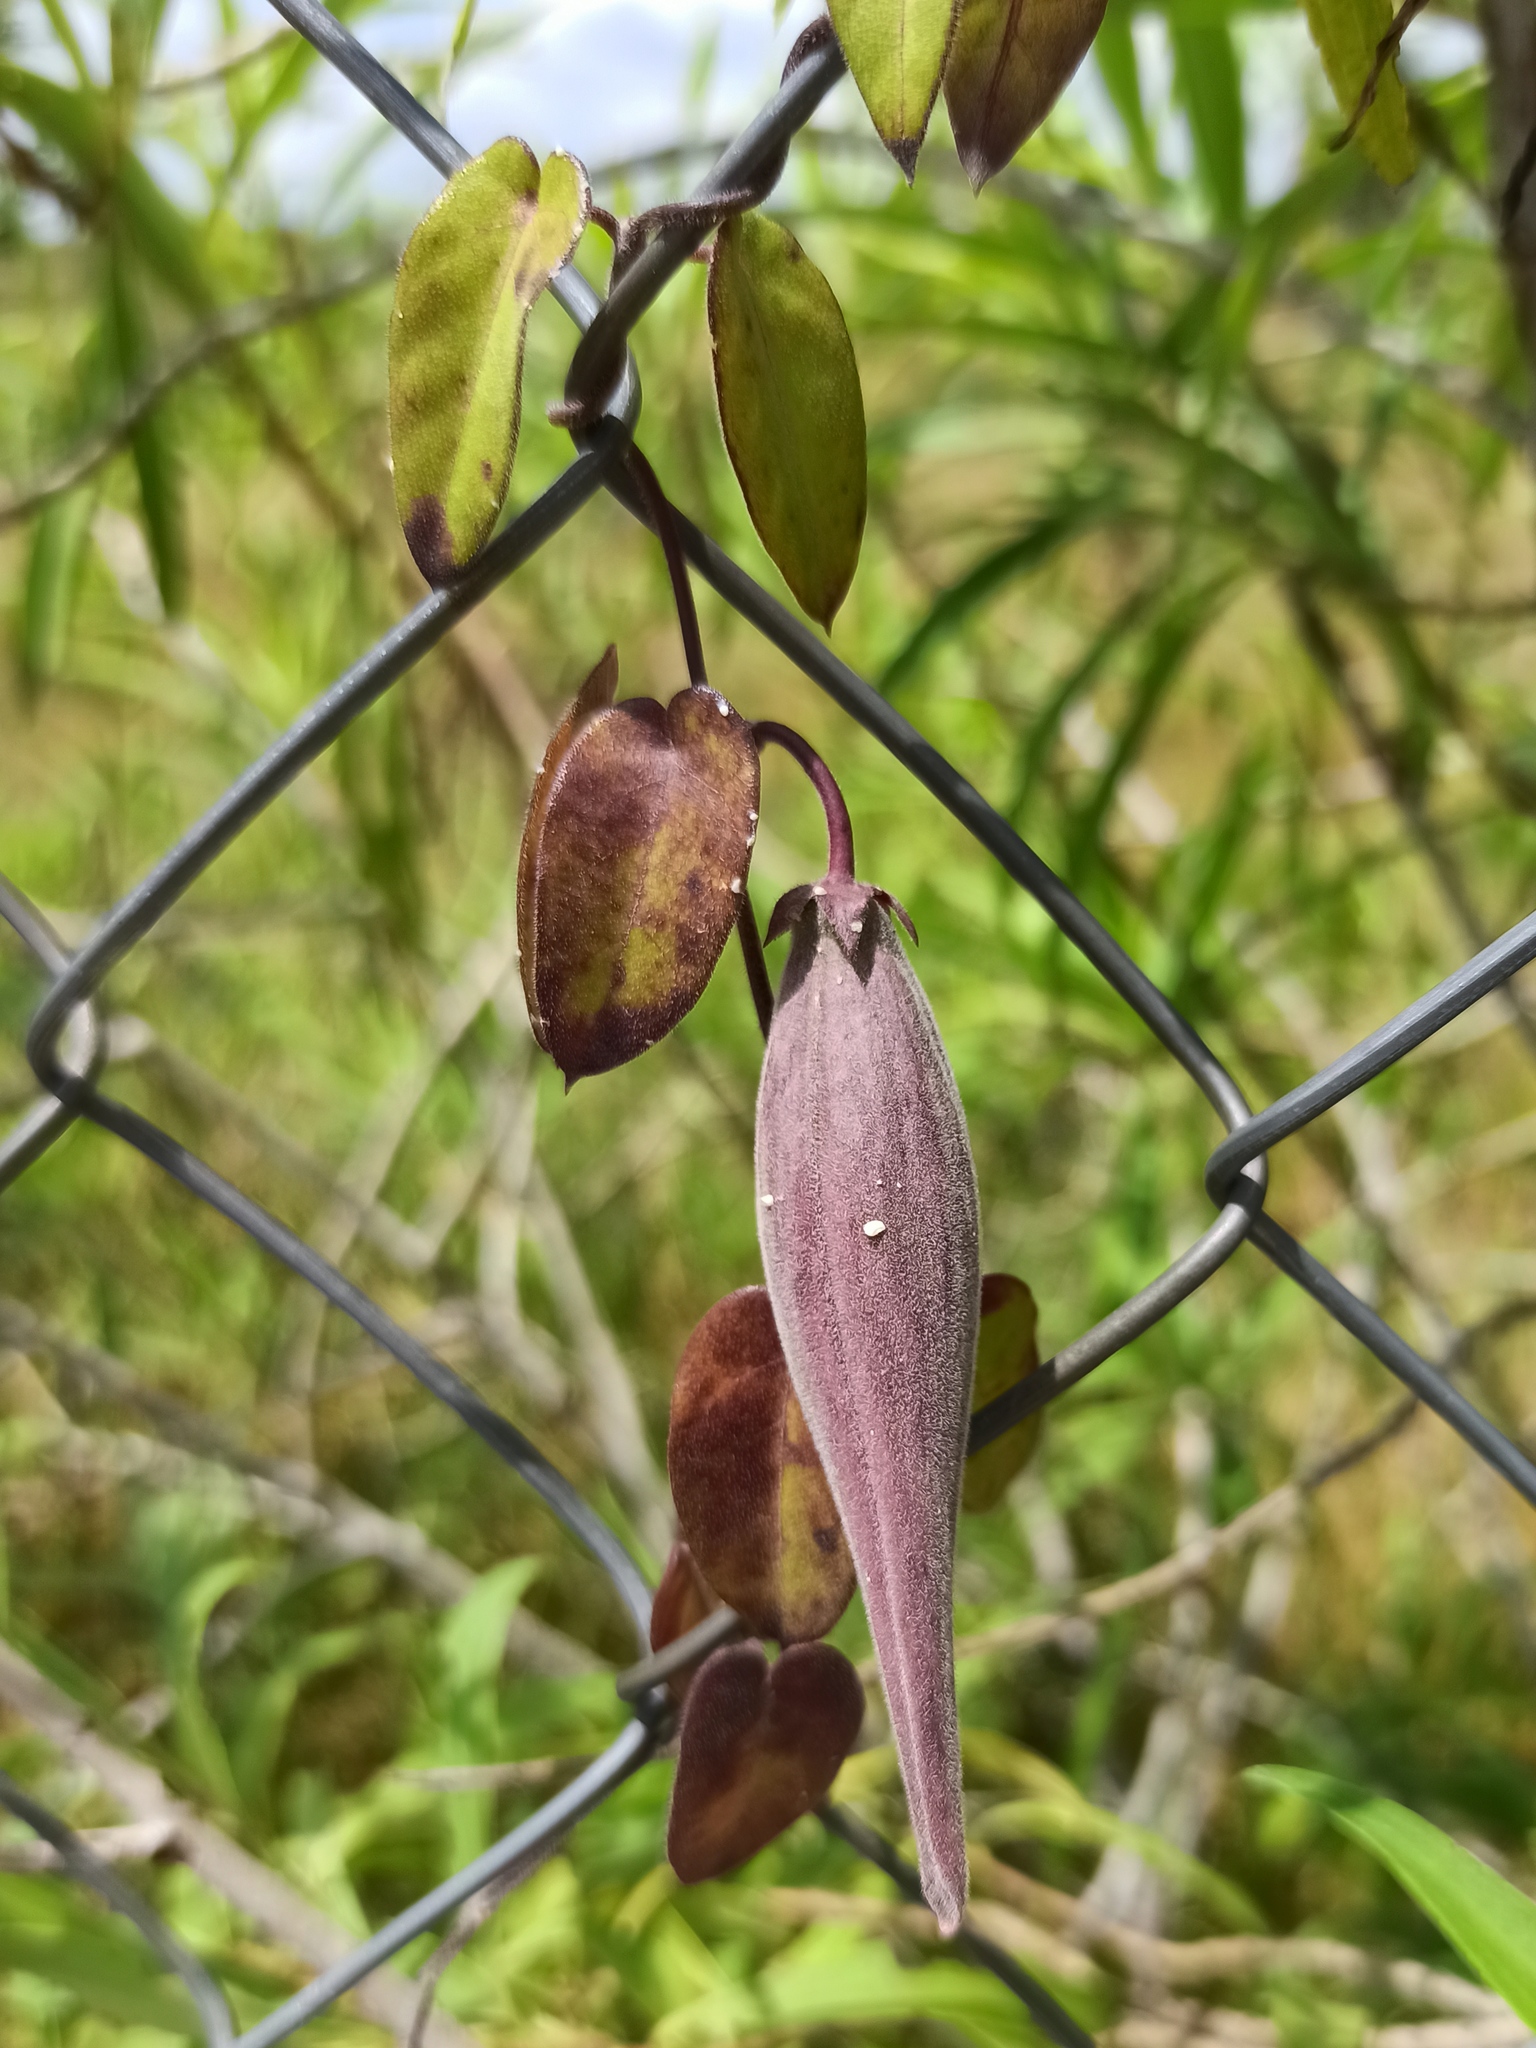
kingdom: Plantae
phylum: Tracheophyta
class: Magnoliopsida
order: Gentianales
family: Apocynaceae
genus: Funastrum
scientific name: Funastrum elegans
